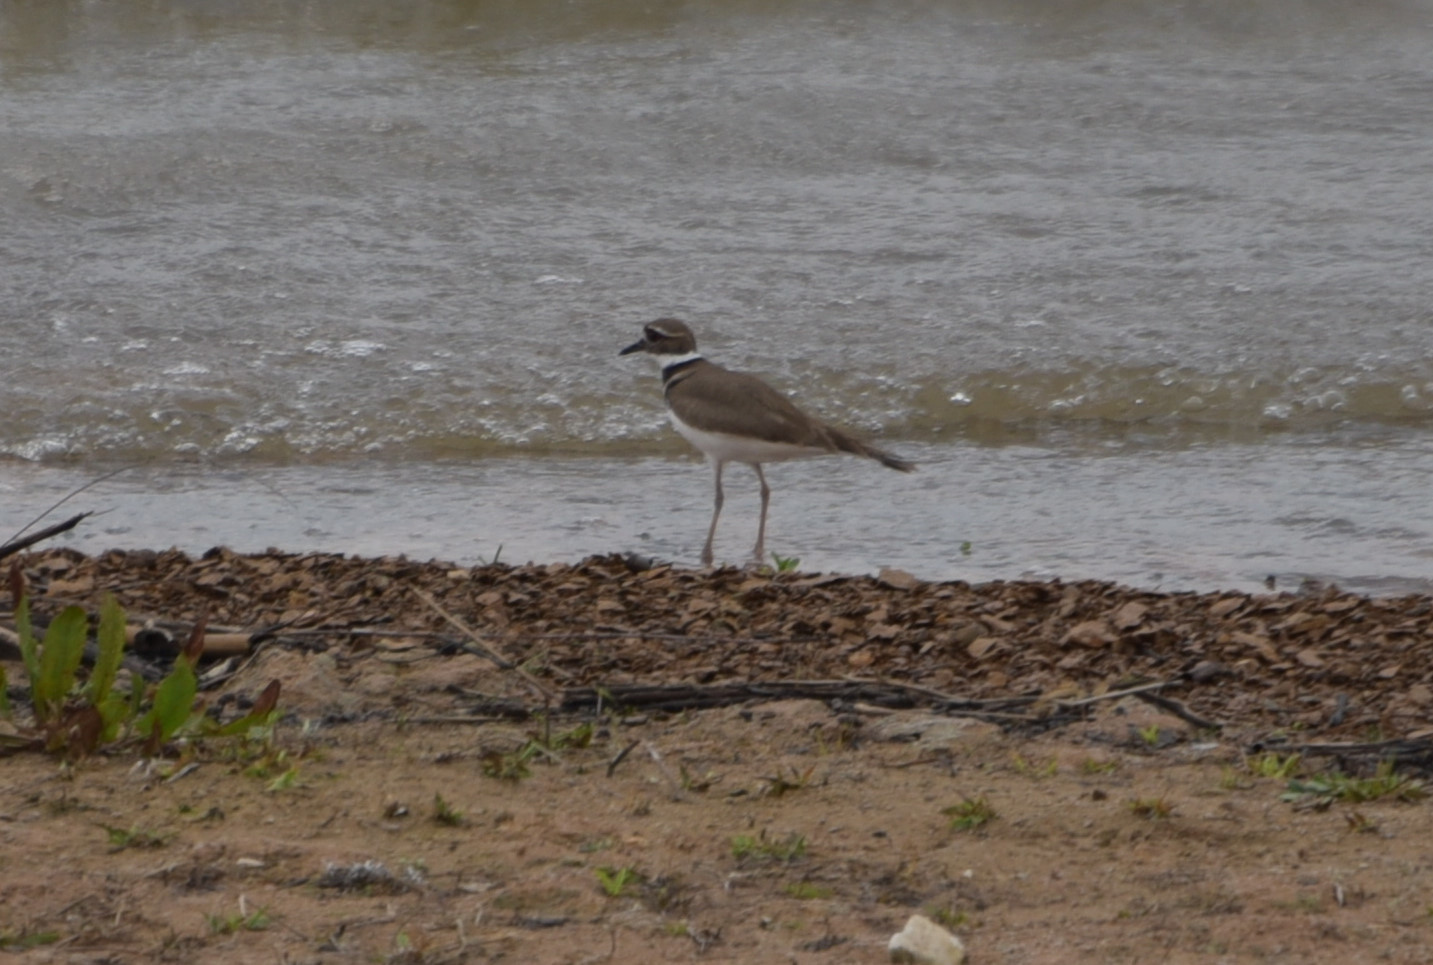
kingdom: Animalia
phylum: Chordata
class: Aves
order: Charadriiformes
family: Charadriidae
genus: Charadrius
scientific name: Charadrius vociferus
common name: Killdeer
